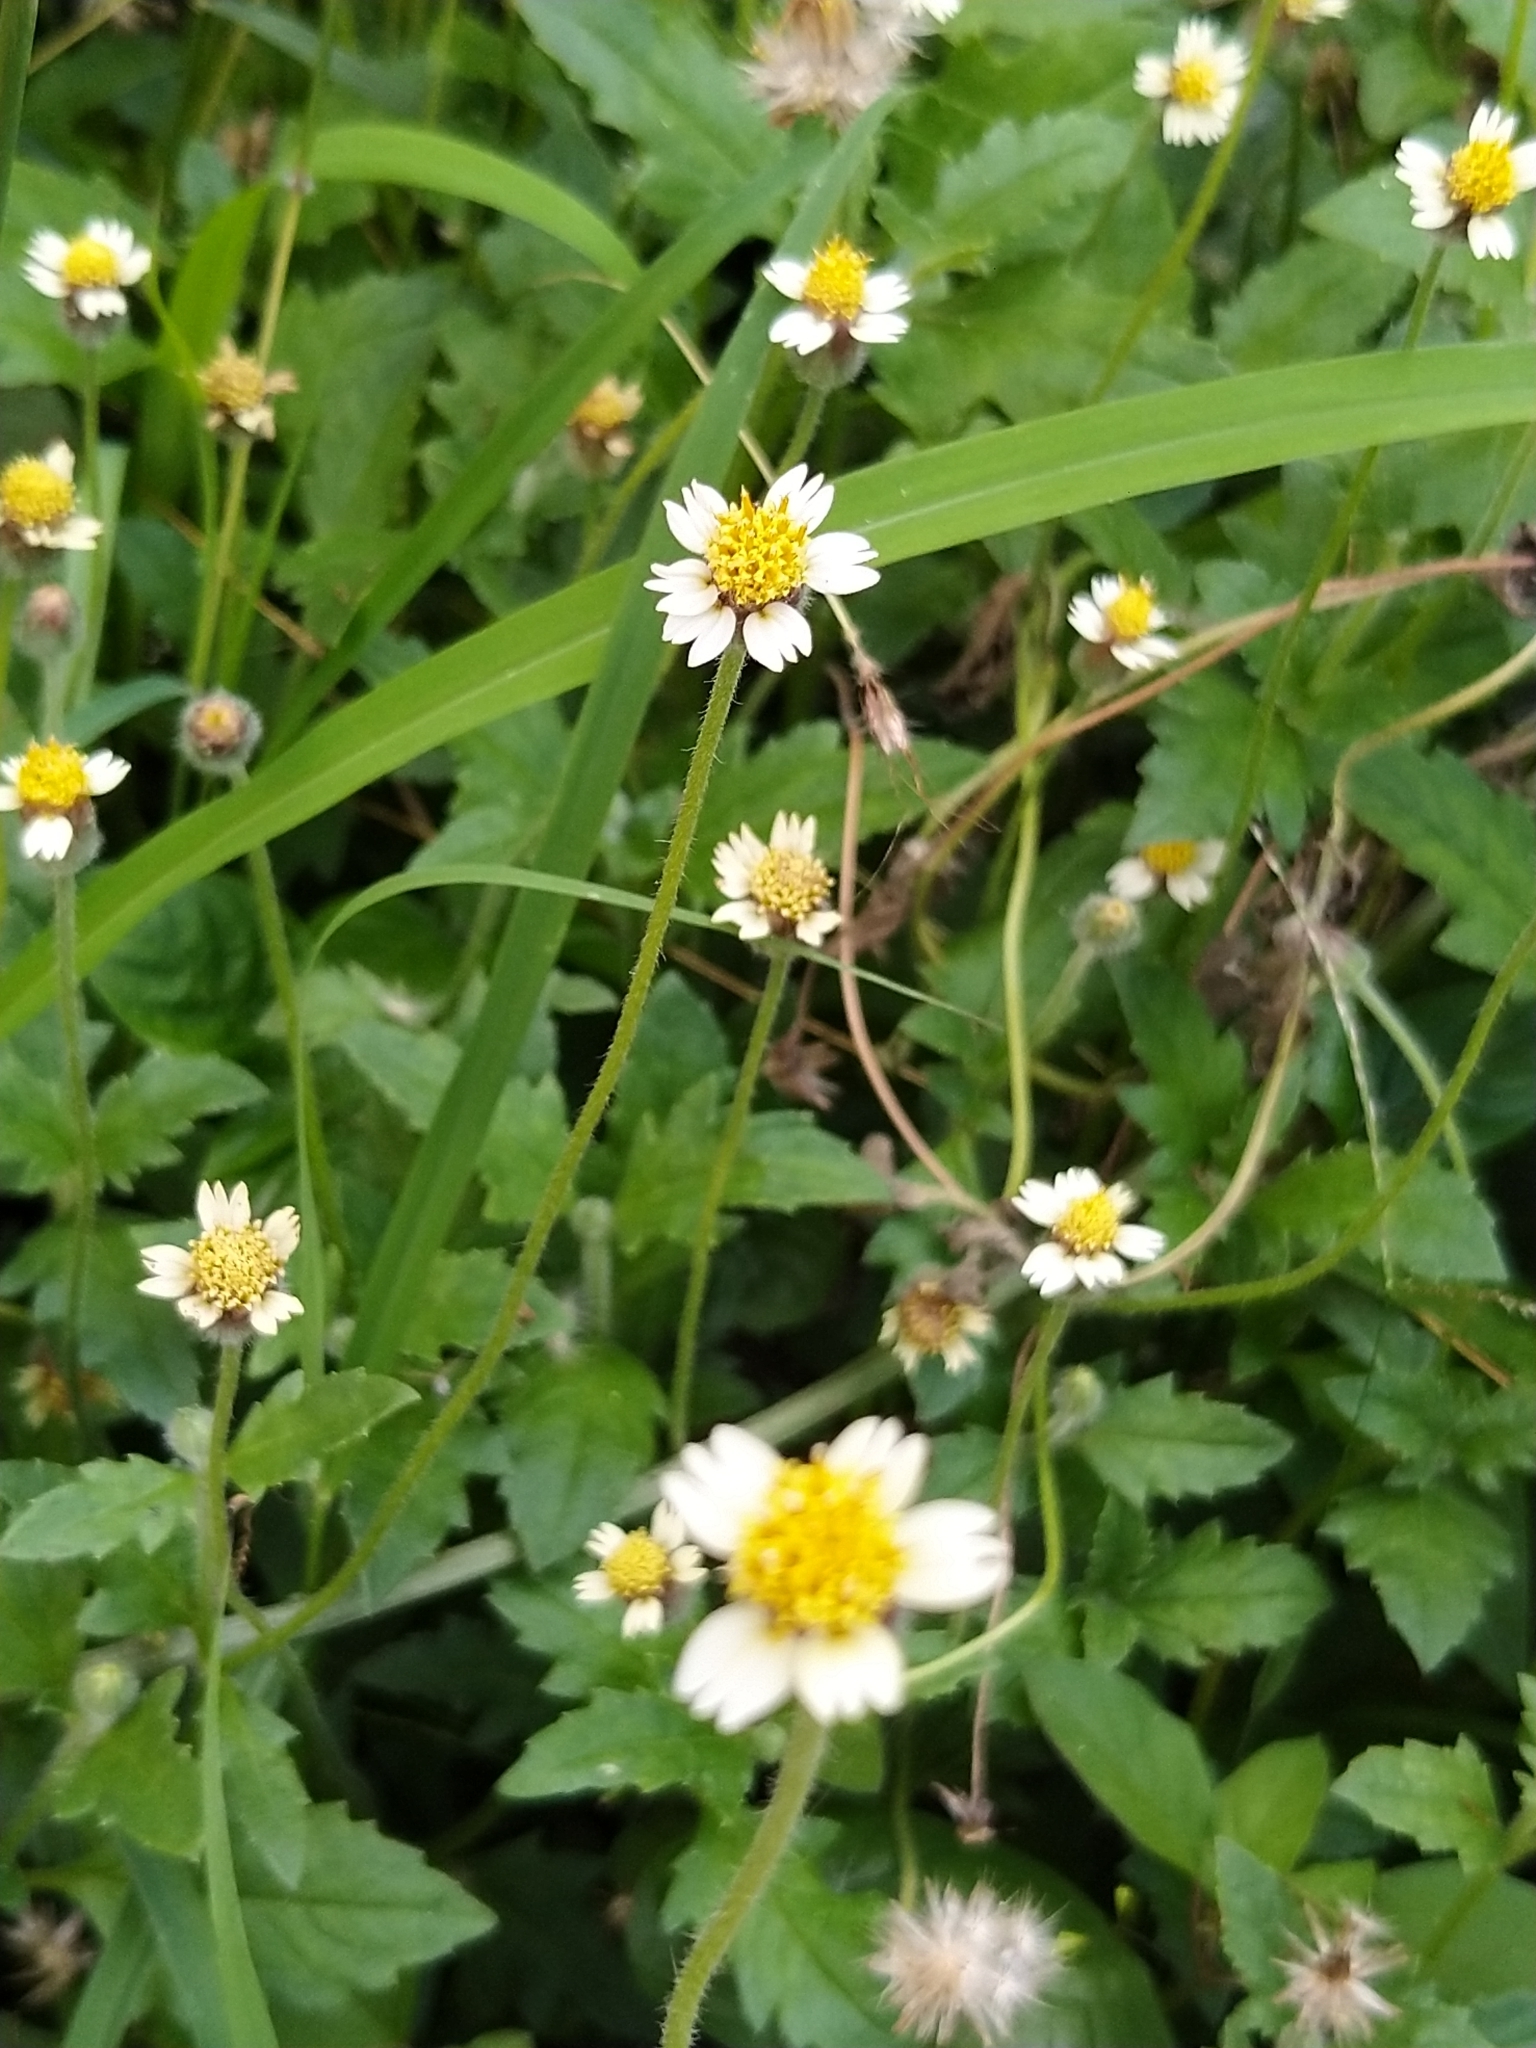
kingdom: Plantae
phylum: Tracheophyta
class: Magnoliopsida
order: Asterales
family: Asteraceae
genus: Tridax
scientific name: Tridax procumbens
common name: Coatbuttons
